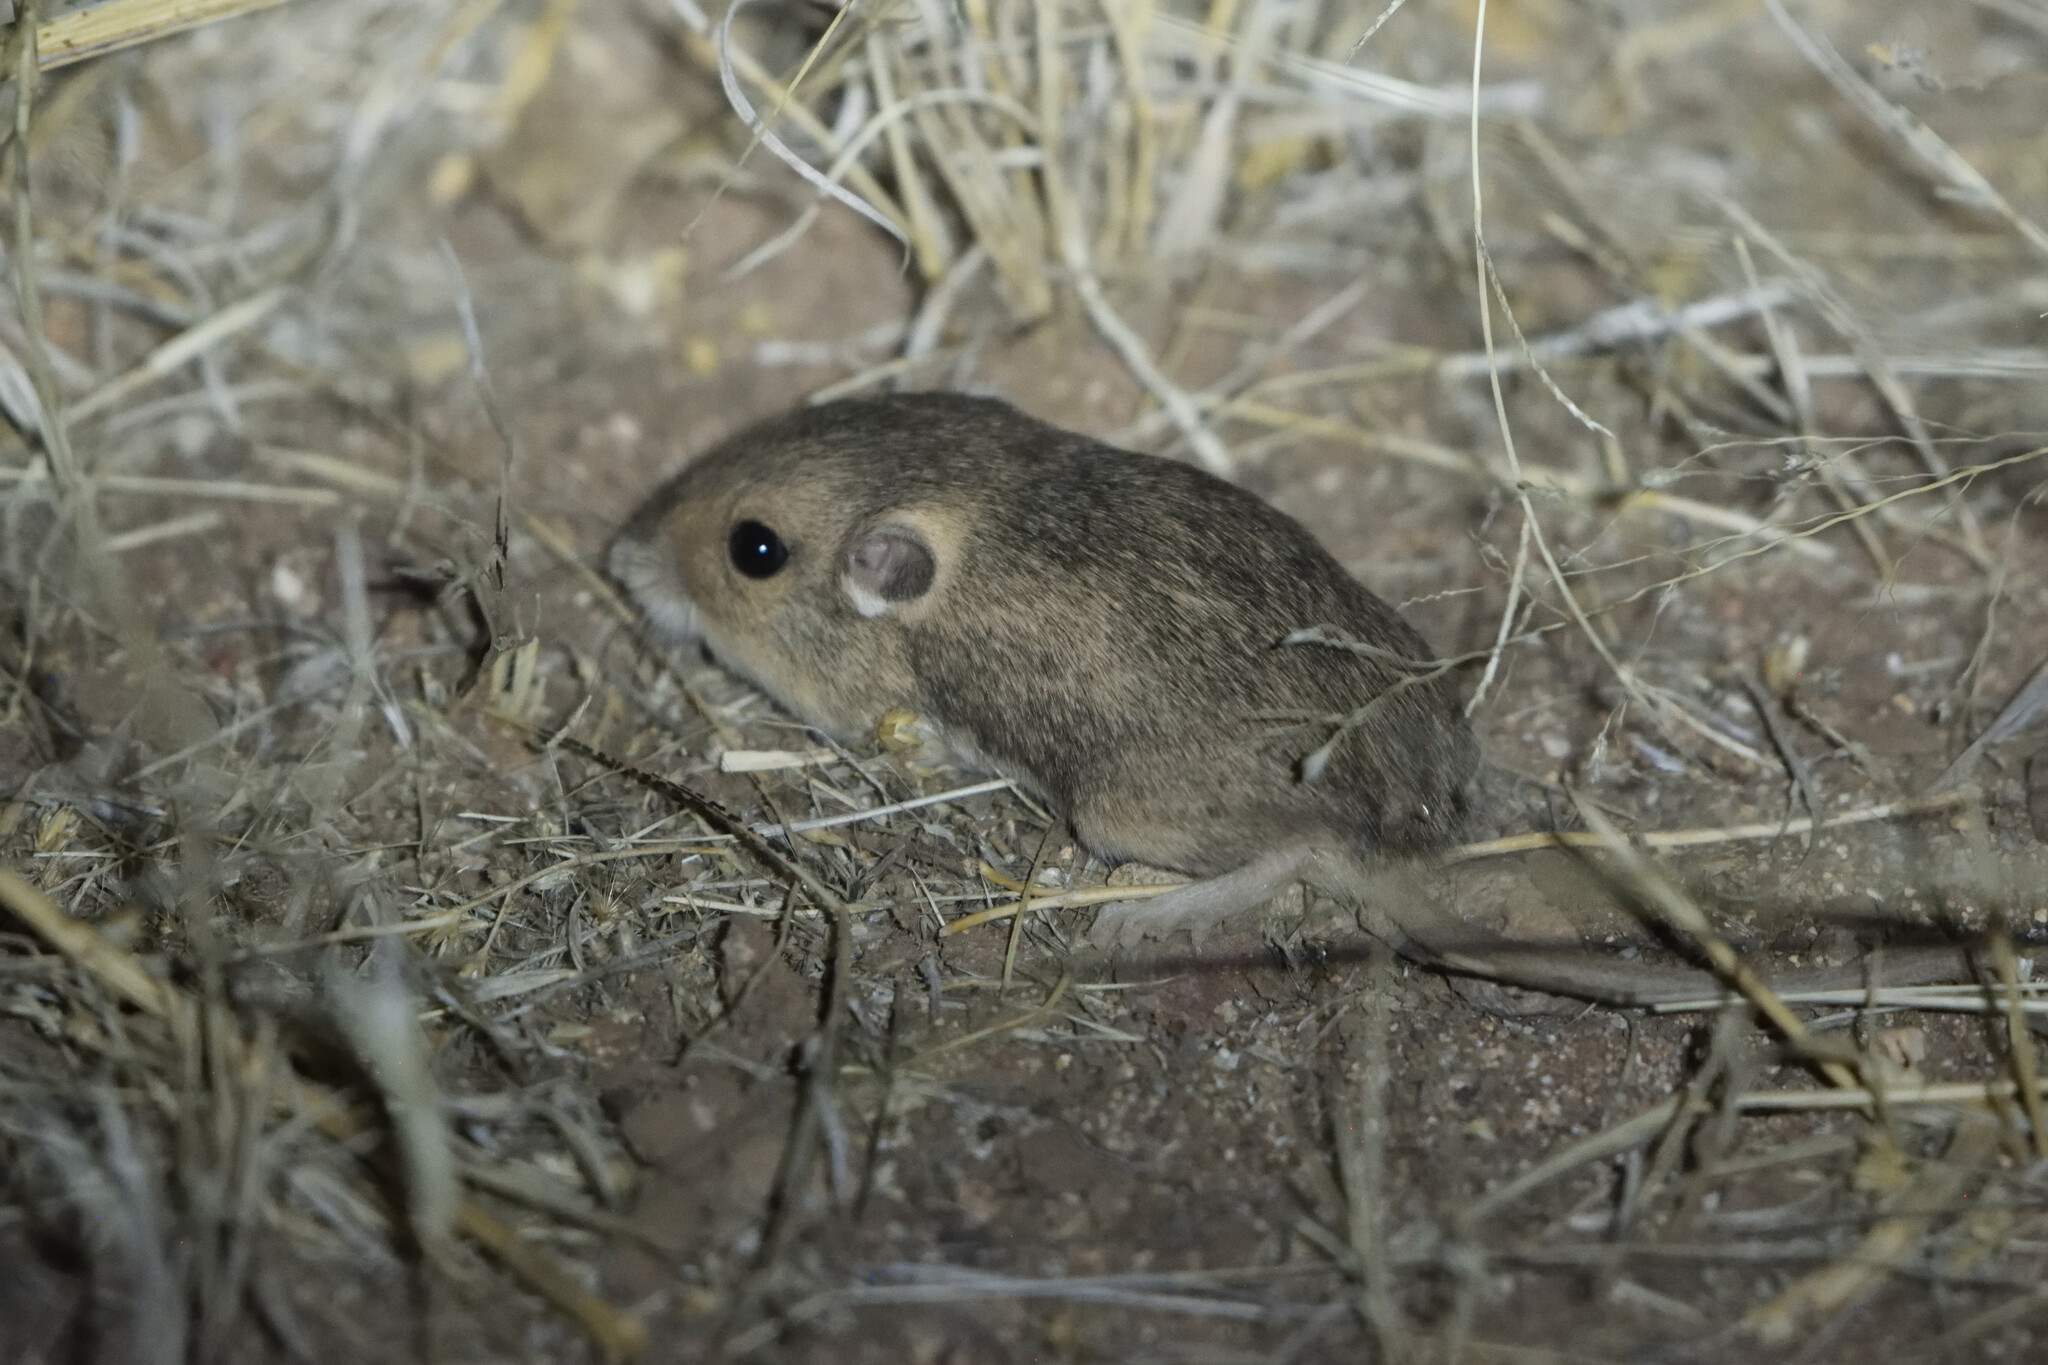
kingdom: Animalia
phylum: Chordata
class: Mammalia
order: Rodentia
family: Heteromyidae
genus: Perognathus
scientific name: Perognathus flavus
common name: Silky pocket mouse
